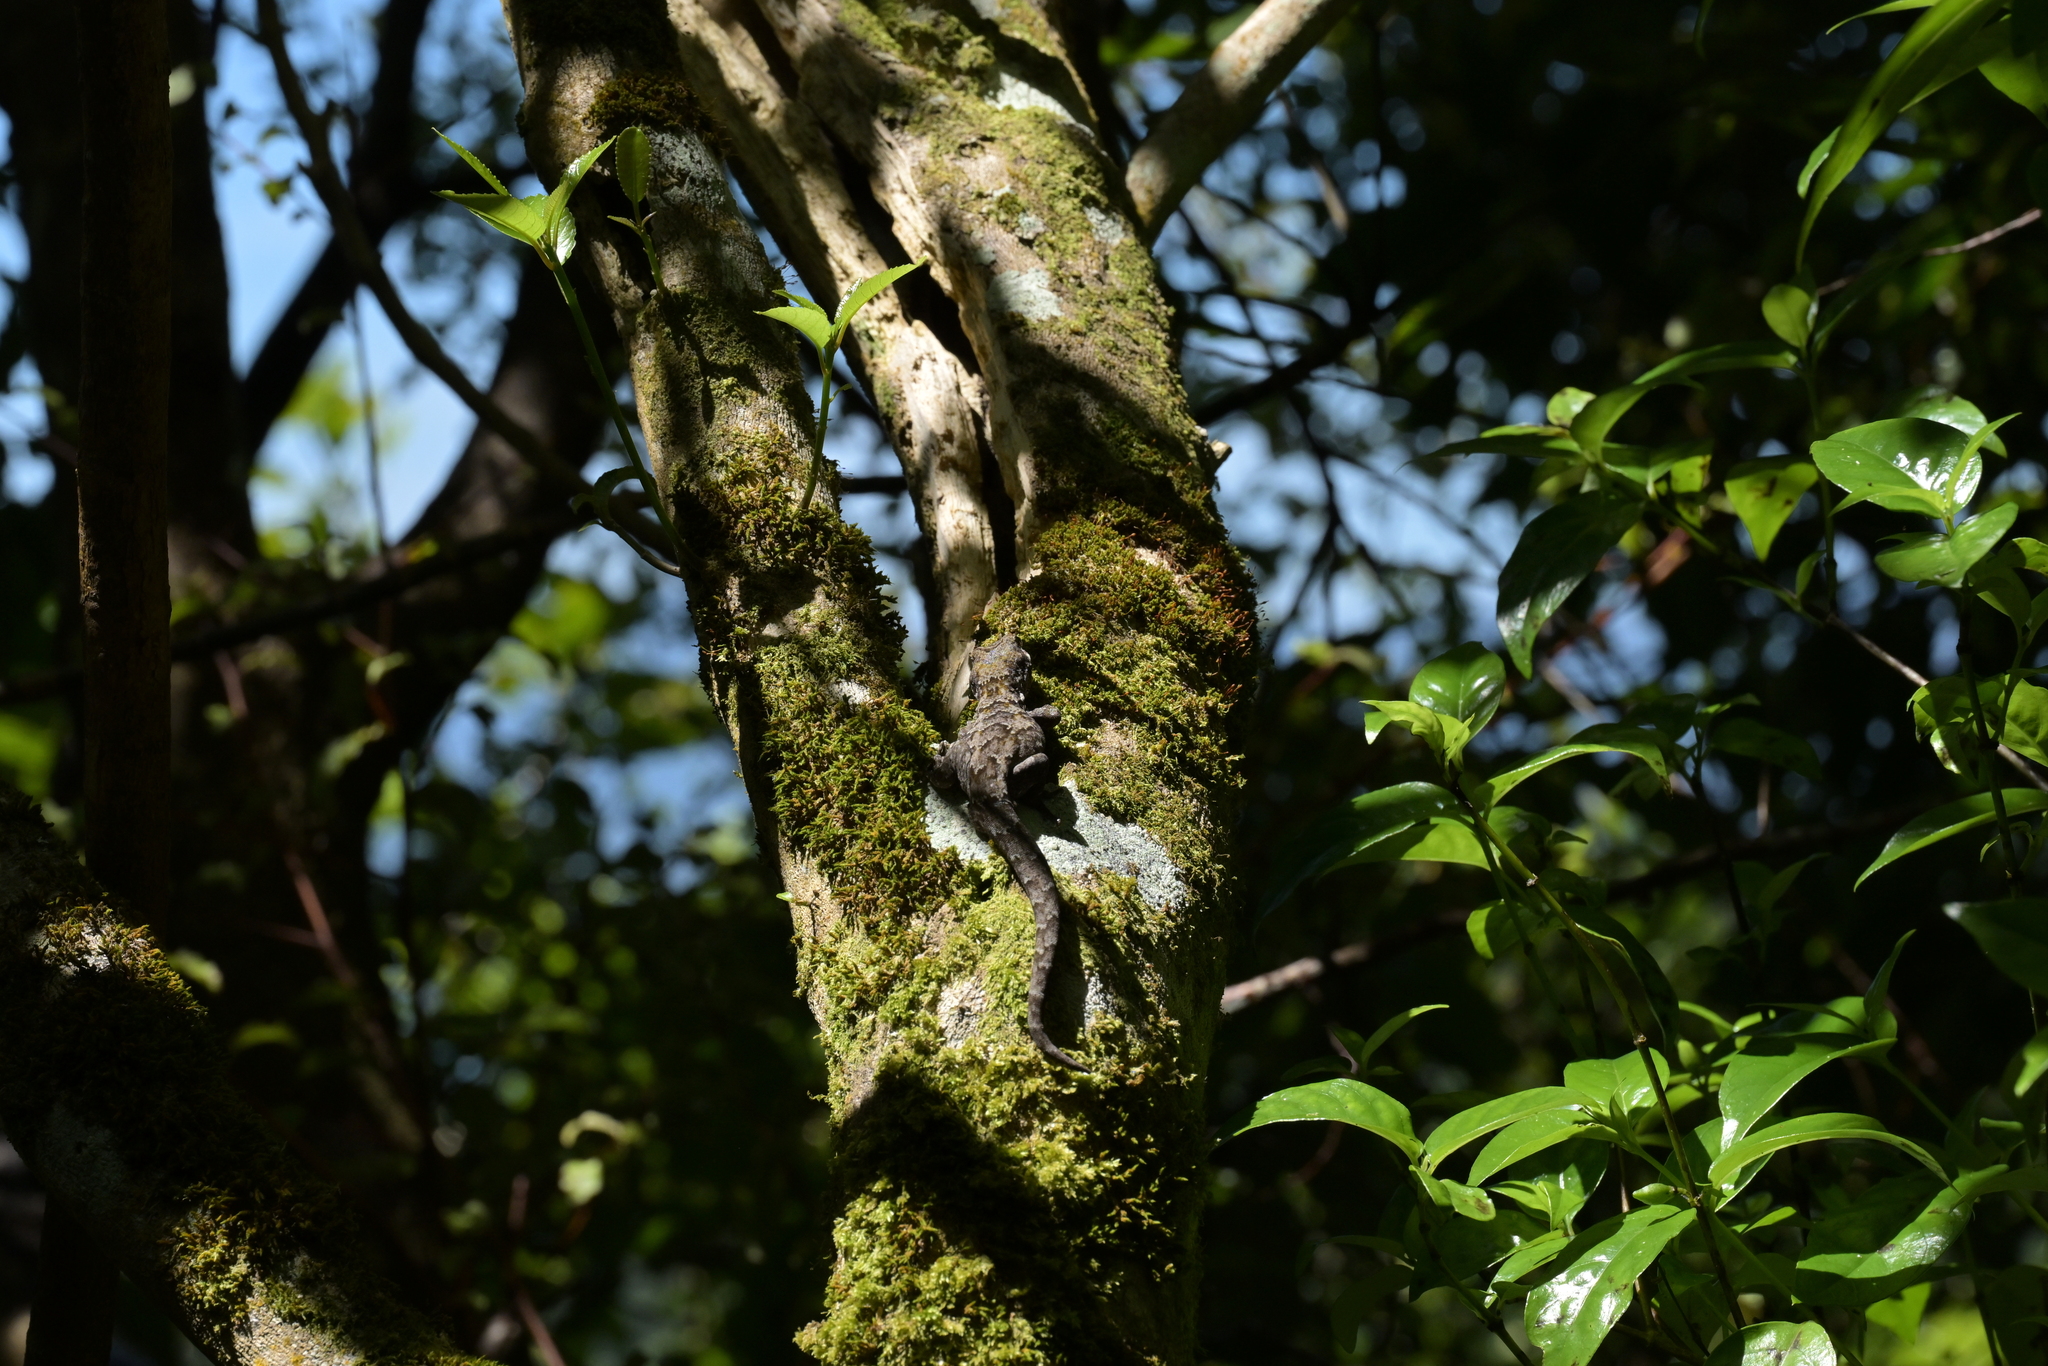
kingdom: Animalia
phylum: Chordata
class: Squamata
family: Diplodactylidae
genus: Mokopirirakau
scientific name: Mokopirirakau
